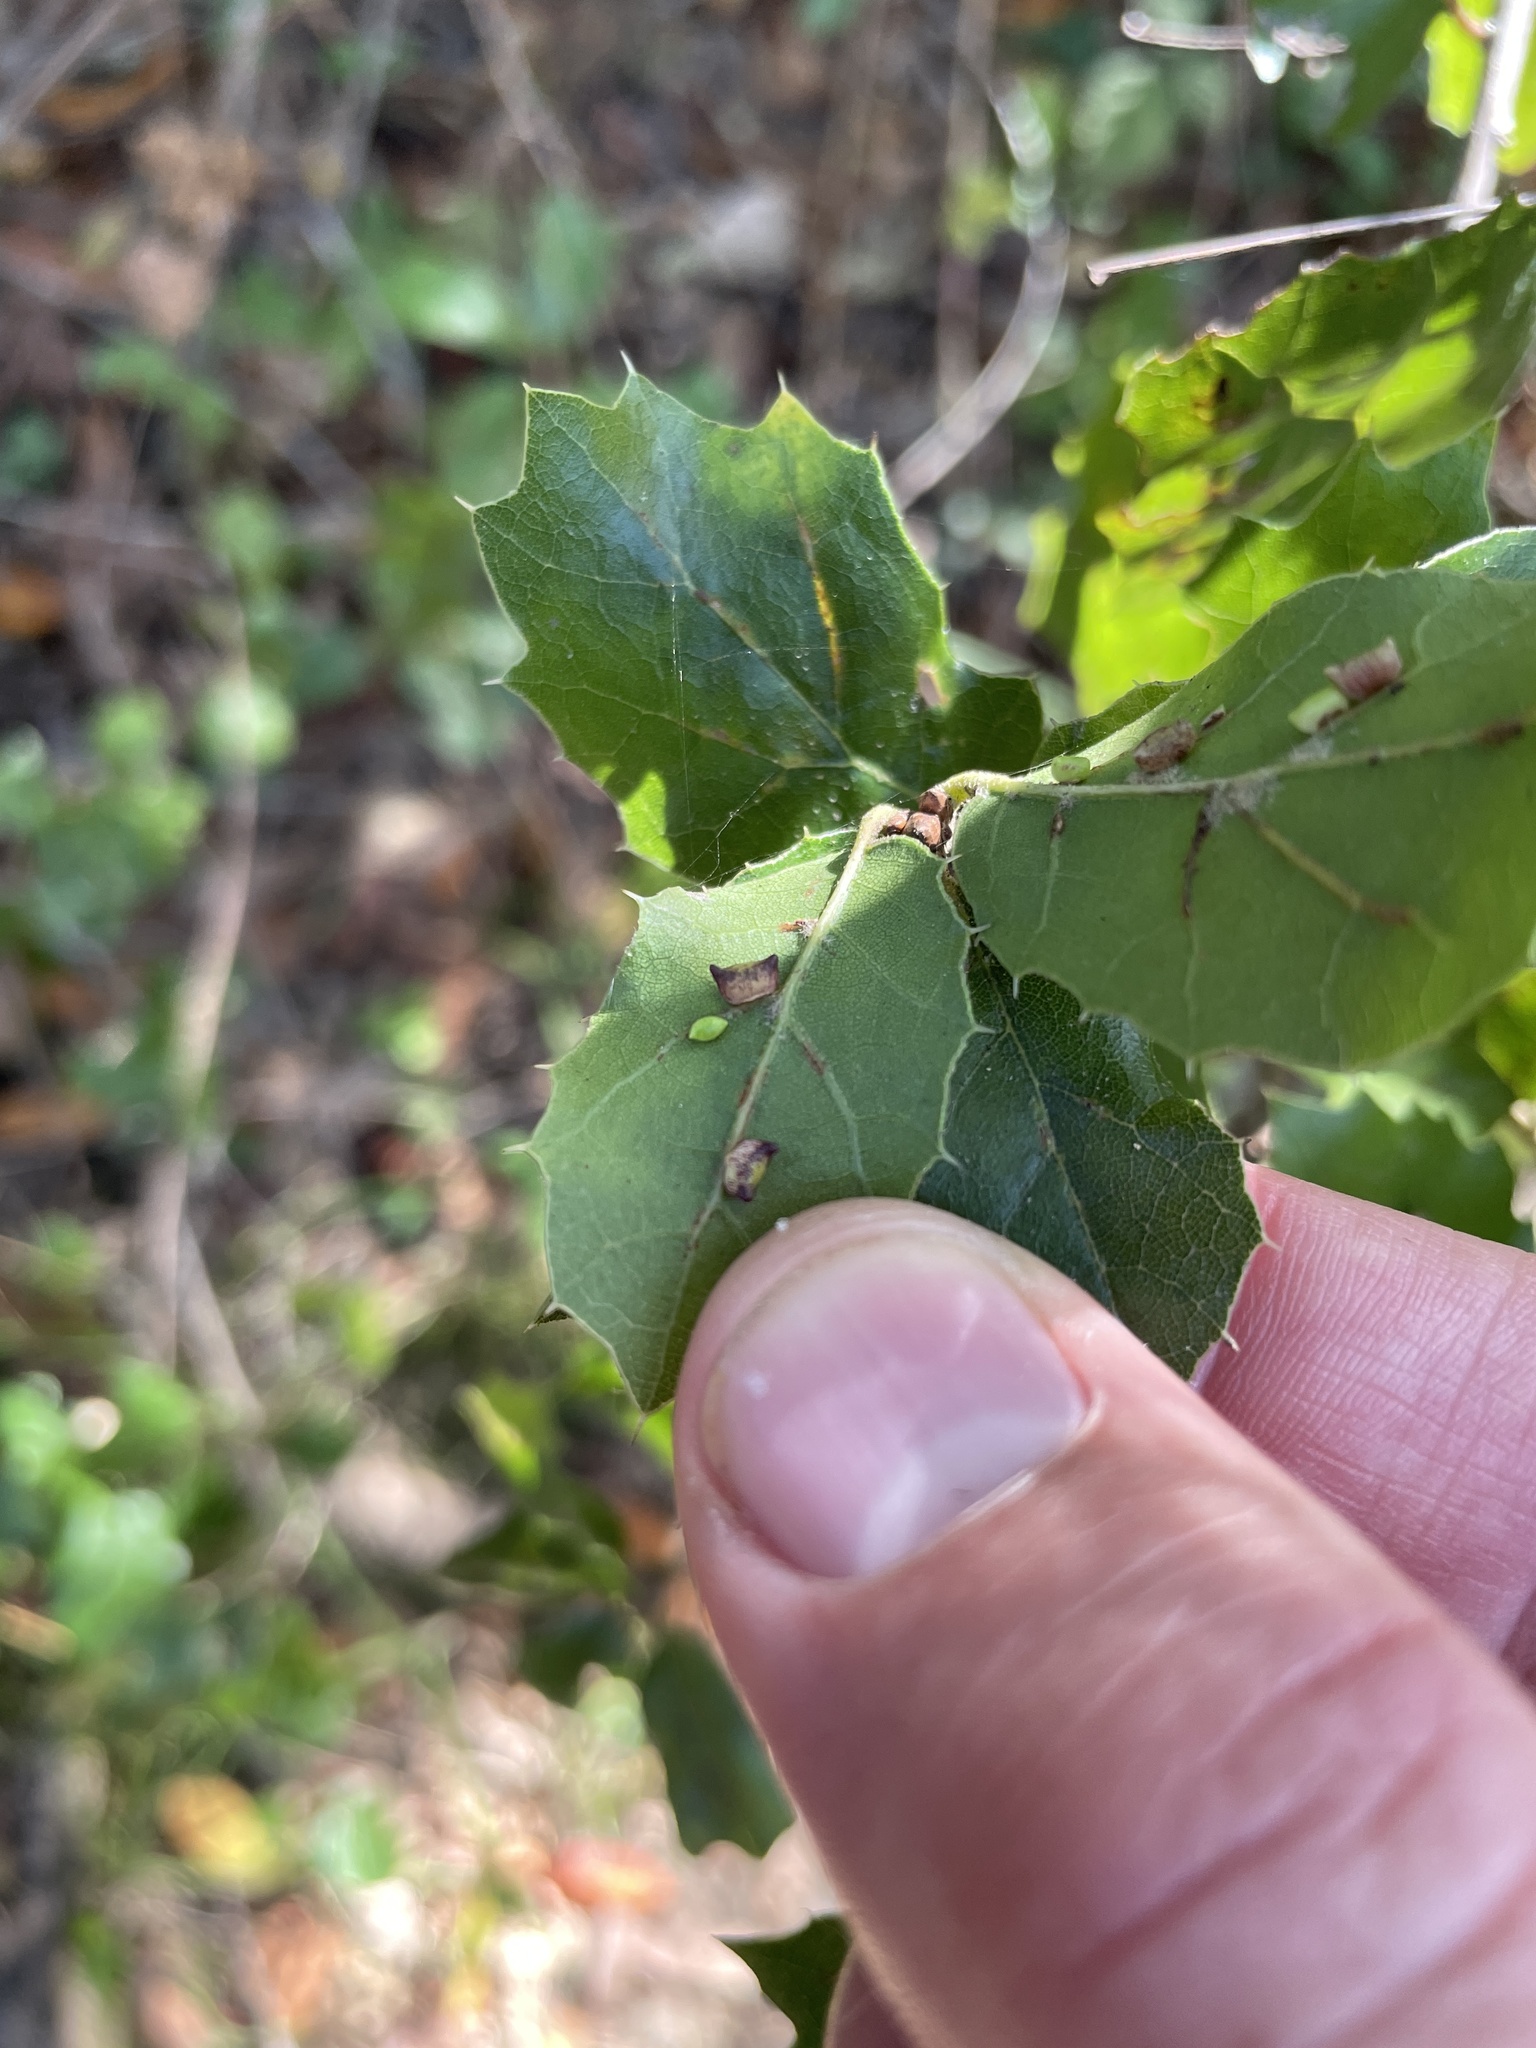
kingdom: Animalia
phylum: Arthropoda
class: Insecta
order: Hymenoptera
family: Cynipidae
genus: Dryocosmus
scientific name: Dryocosmus
